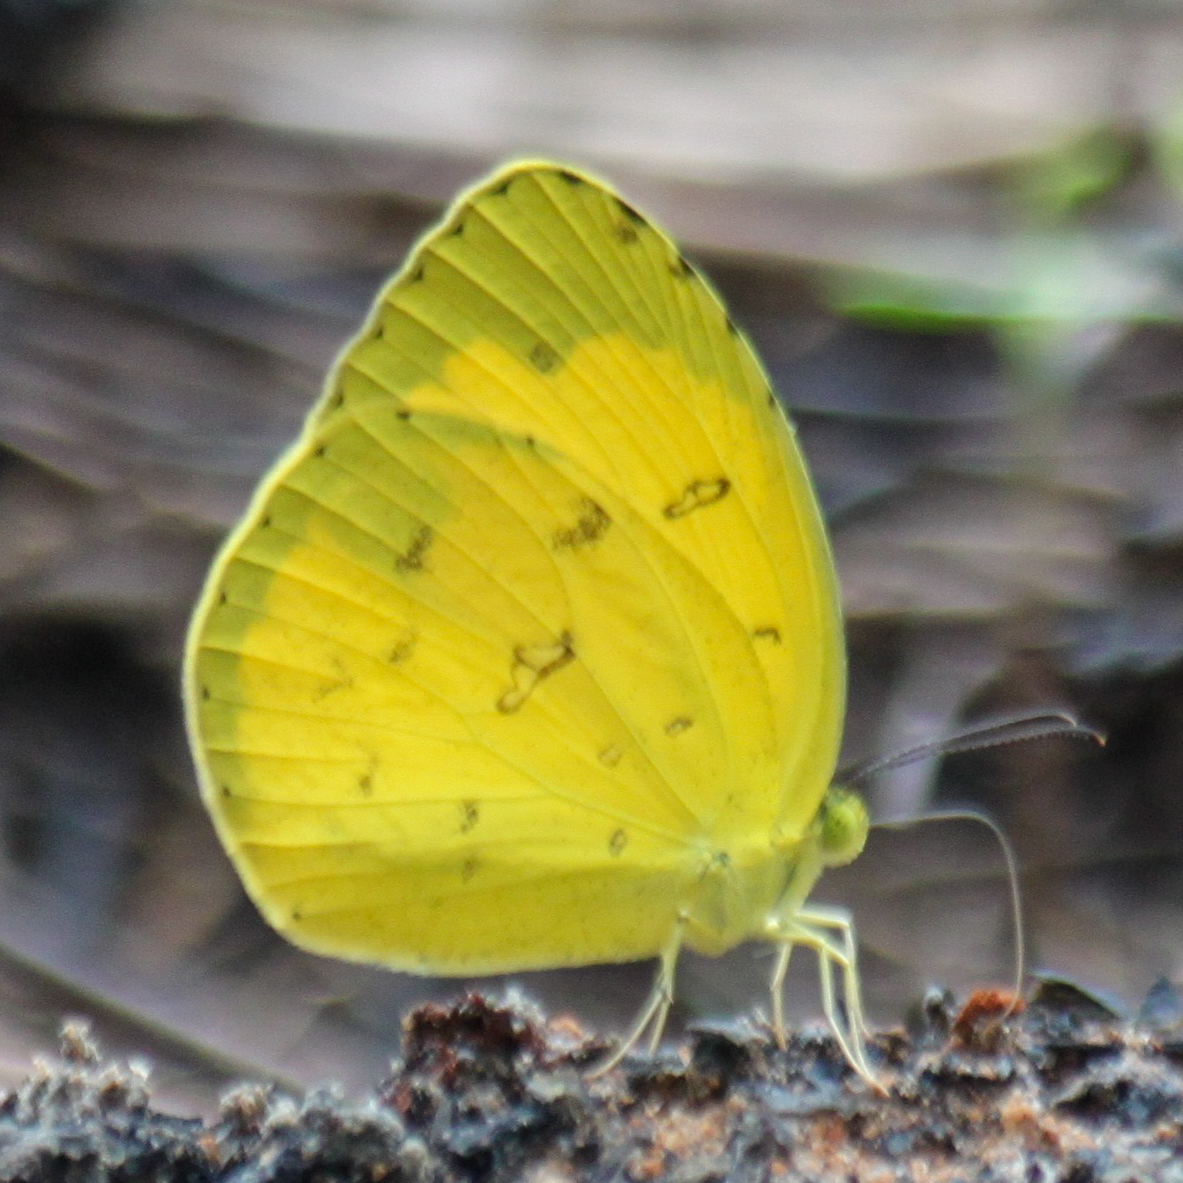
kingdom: Animalia
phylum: Arthropoda
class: Insecta
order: Lepidoptera
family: Pieridae
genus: Eurema
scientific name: Eurema hecabe
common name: Pale grass yellow
